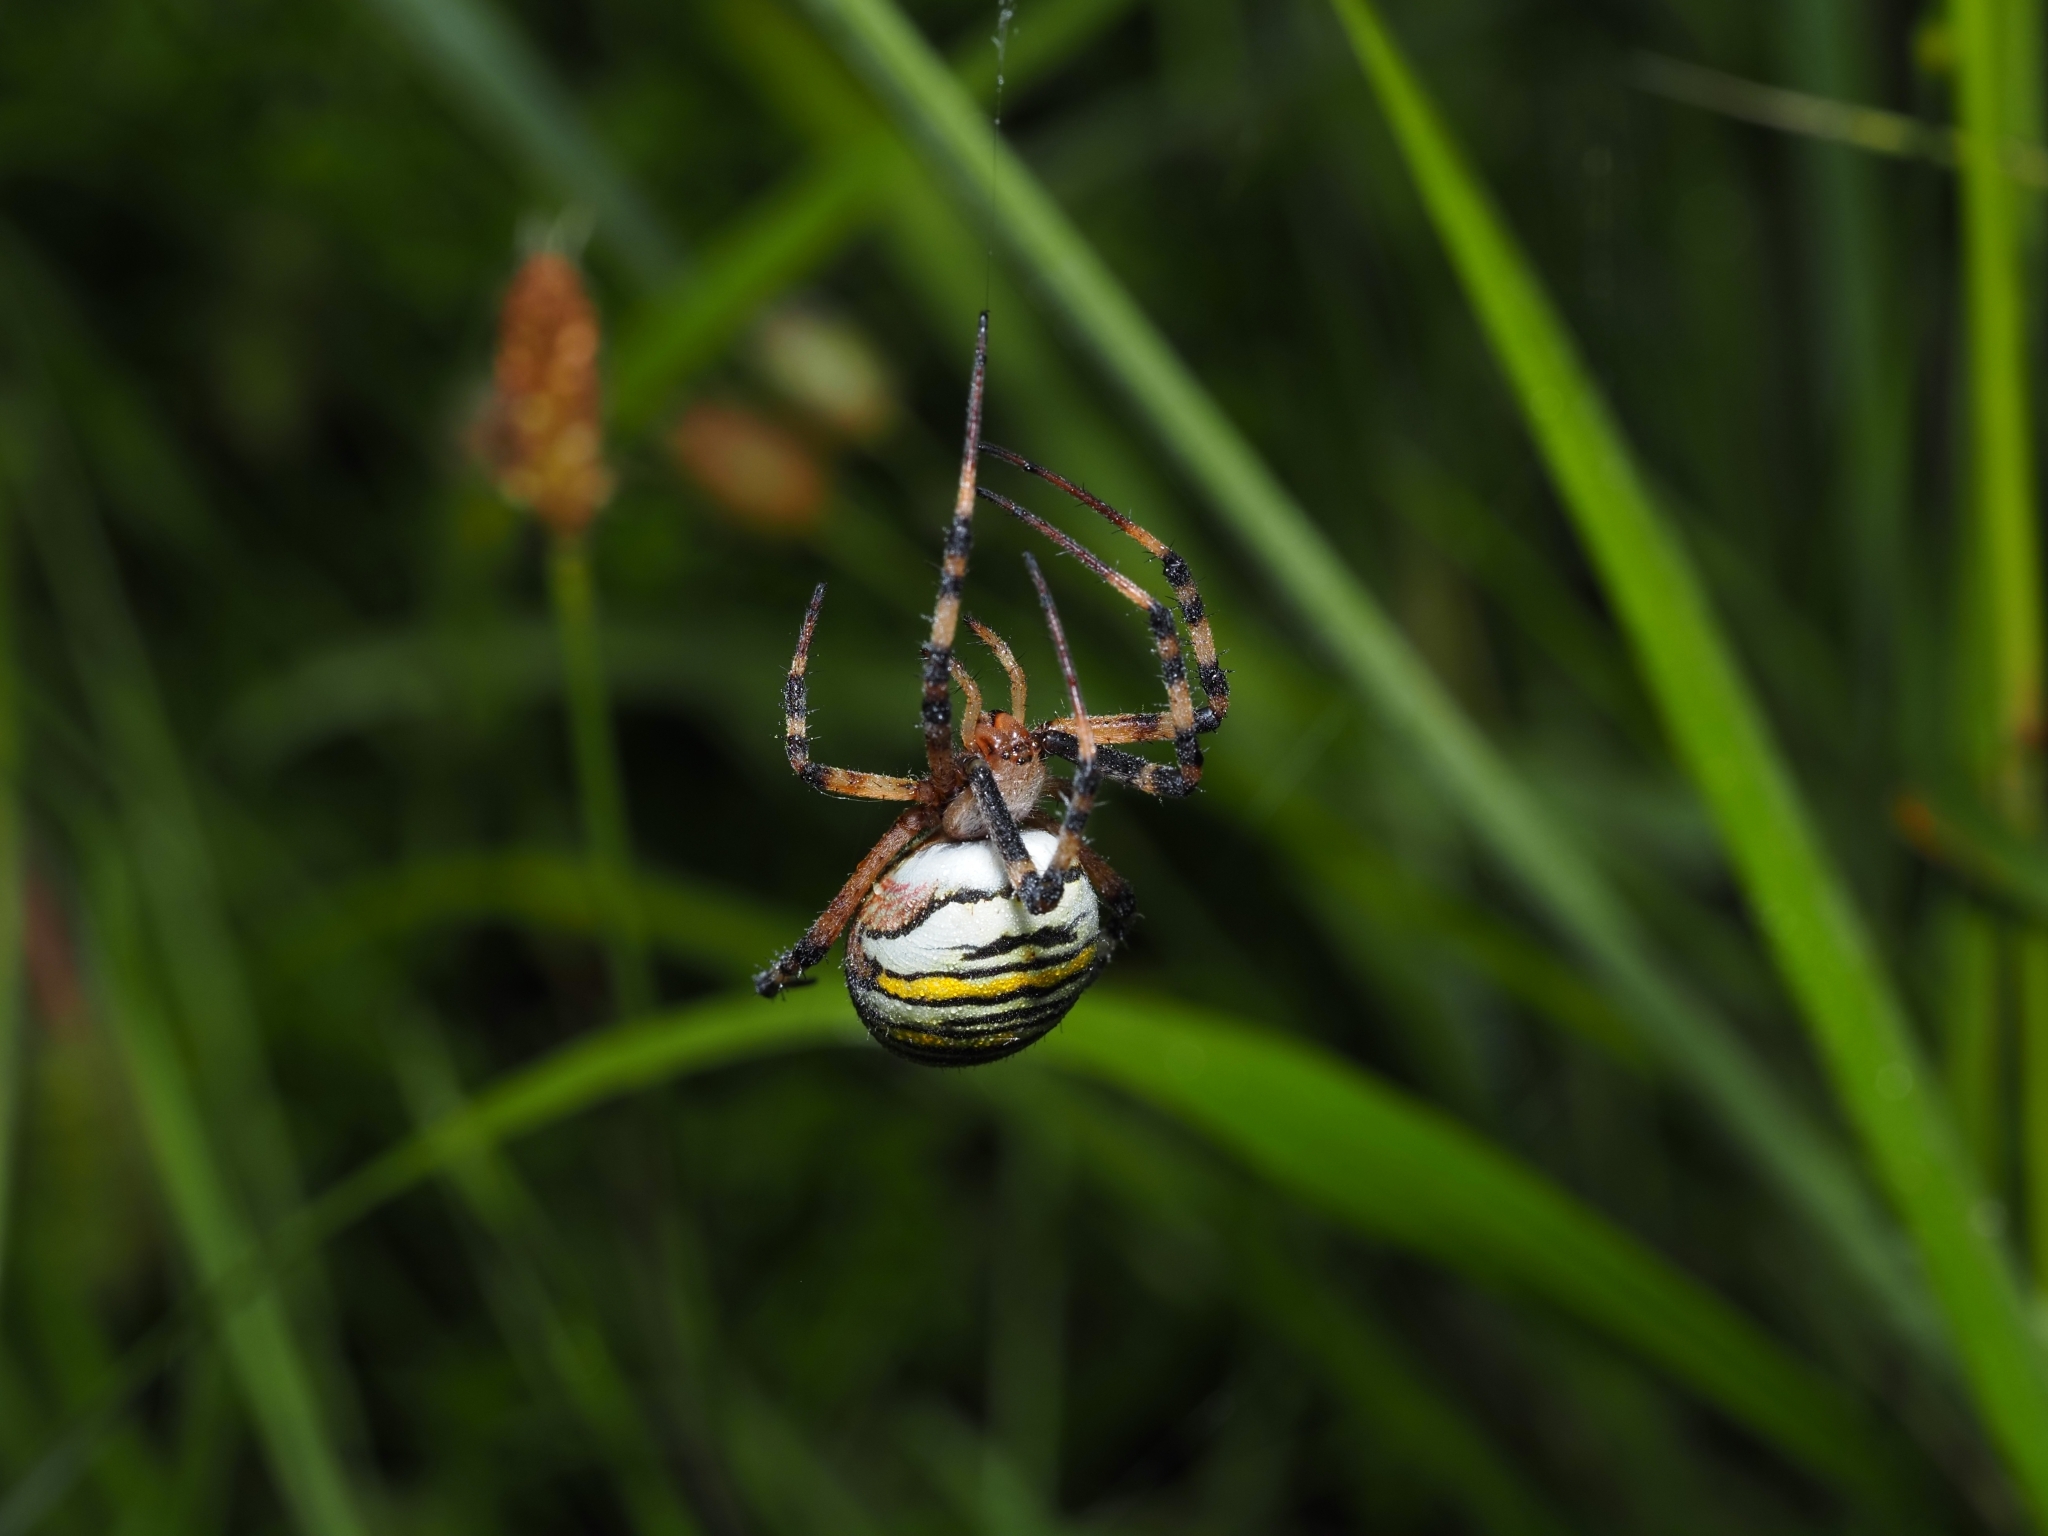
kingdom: Animalia
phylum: Arthropoda
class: Arachnida
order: Araneae
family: Araneidae
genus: Argiope
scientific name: Argiope bruennichi
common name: Wasp spider
